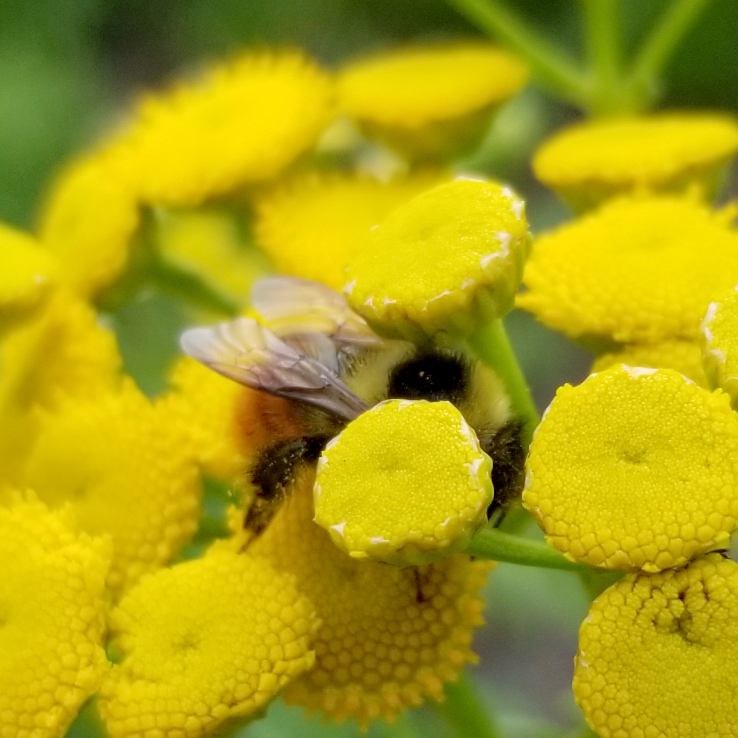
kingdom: Animalia
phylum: Arthropoda
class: Insecta
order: Hymenoptera
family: Apidae
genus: Bombus
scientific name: Bombus rufocinctus
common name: Red-belted bumble bee
